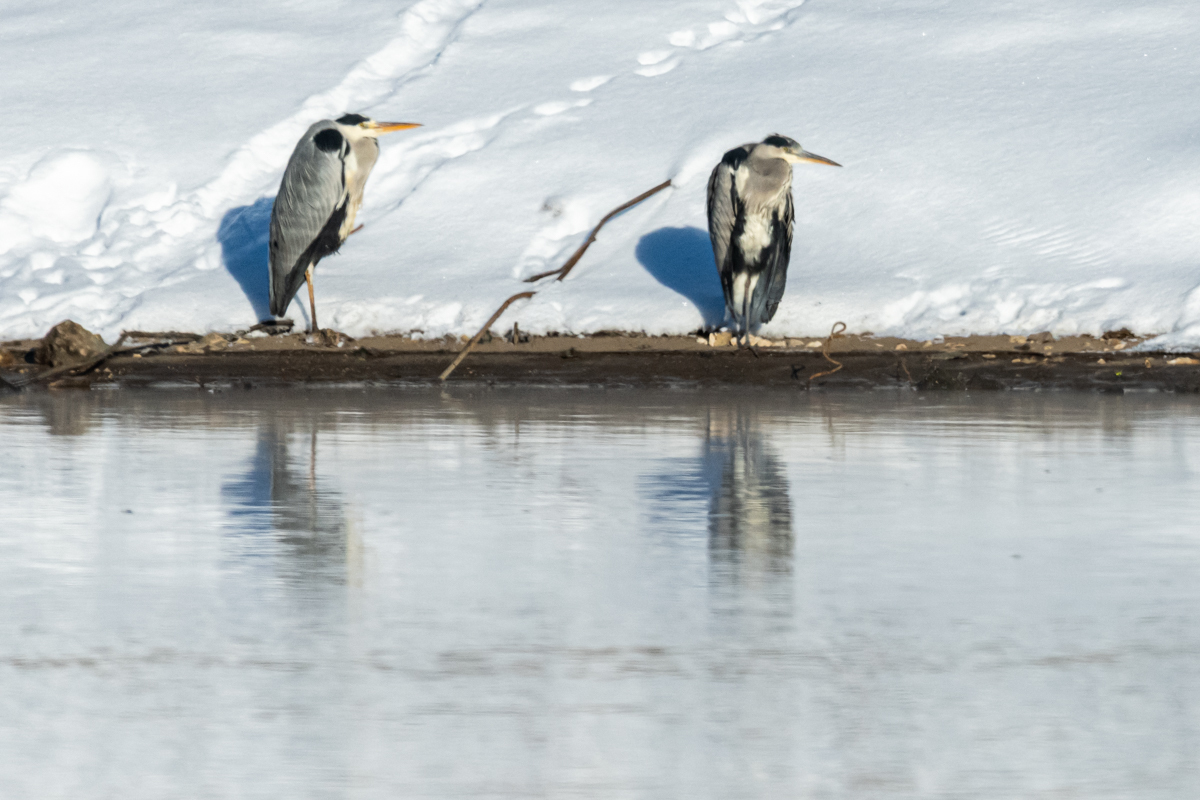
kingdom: Animalia
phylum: Chordata
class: Aves
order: Pelecaniformes
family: Ardeidae
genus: Ardea
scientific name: Ardea cinerea
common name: Grey heron
